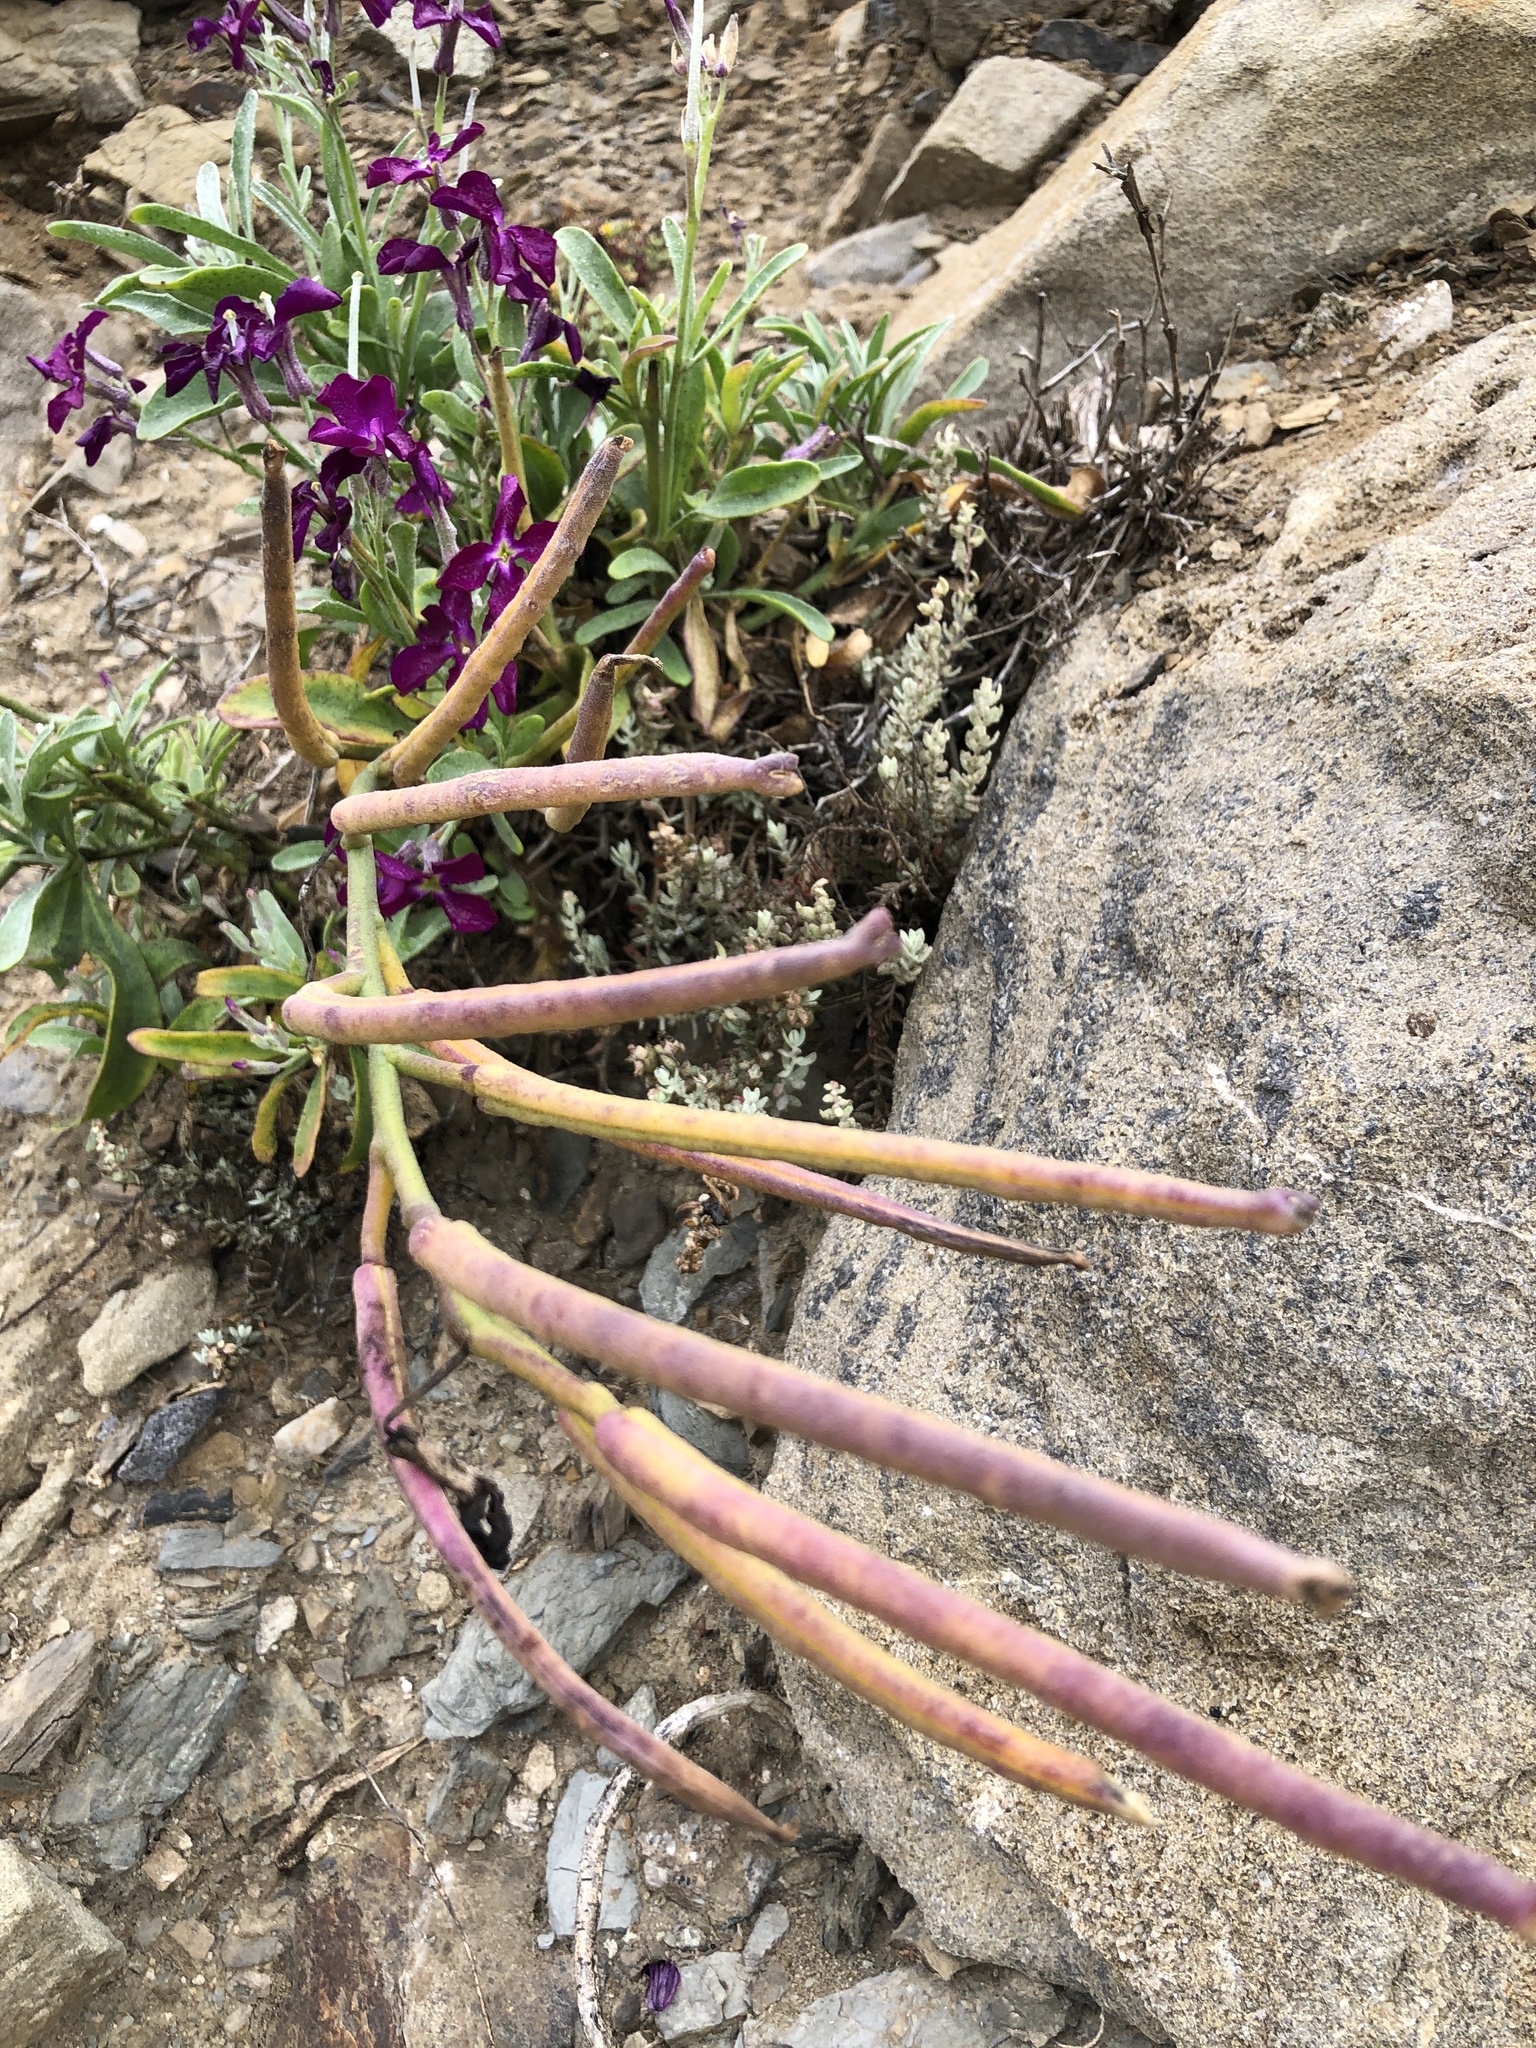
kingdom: Plantae
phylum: Tracheophyta
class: Magnoliopsida
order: Brassicales
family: Brassicaceae
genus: Matthiola
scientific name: Matthiola incana
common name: Hoary stock
